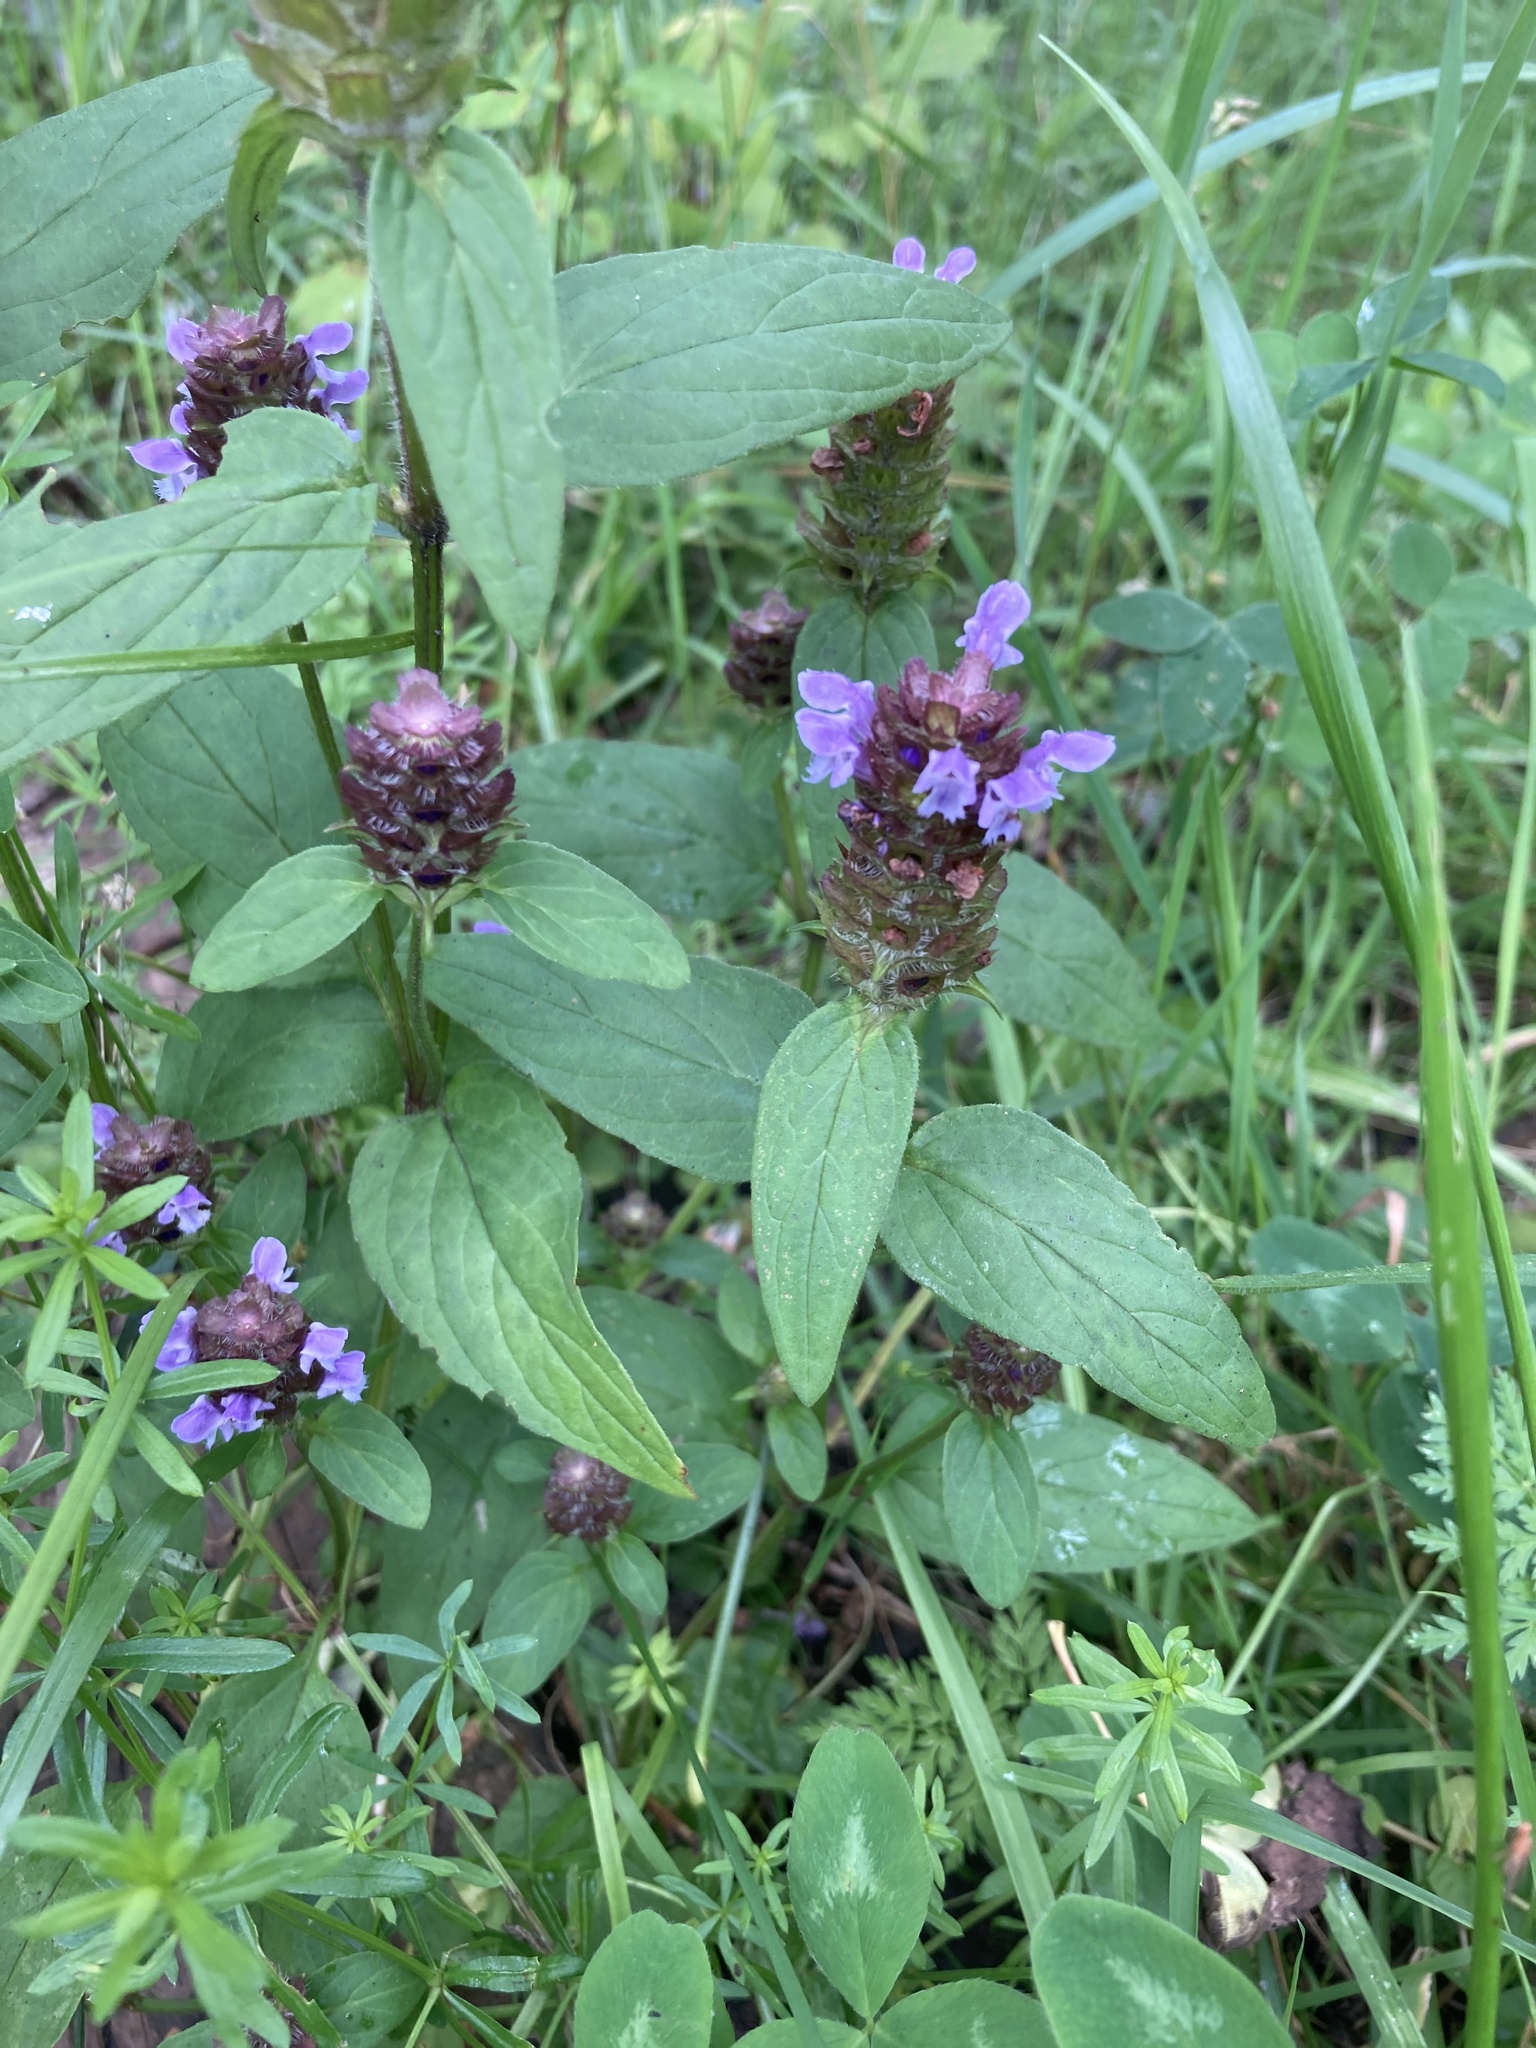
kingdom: Plantae
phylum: Tracheophyta
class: Magnoliopsida
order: Lamiales
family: Lamiaceae
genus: Prunella
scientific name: Prunella vulgaris
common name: Heal-all
